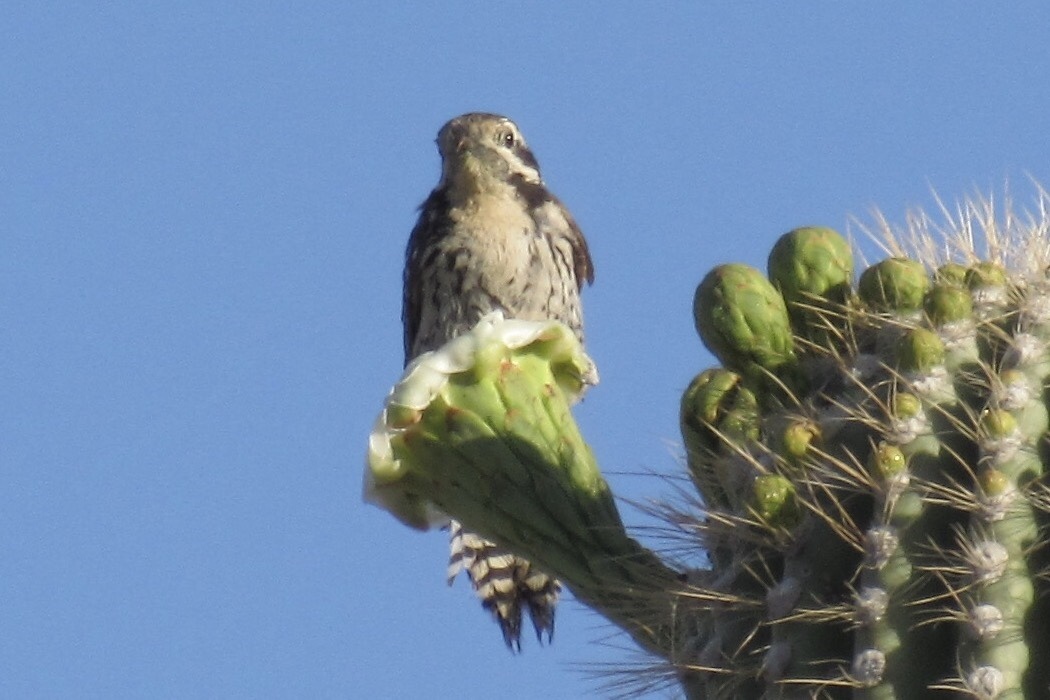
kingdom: Animalia
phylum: Chordata
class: Aves
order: Piciformes
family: Picidae
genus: Dryobates
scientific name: Dryobates scalaris
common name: Ladder-backed woodpecker
